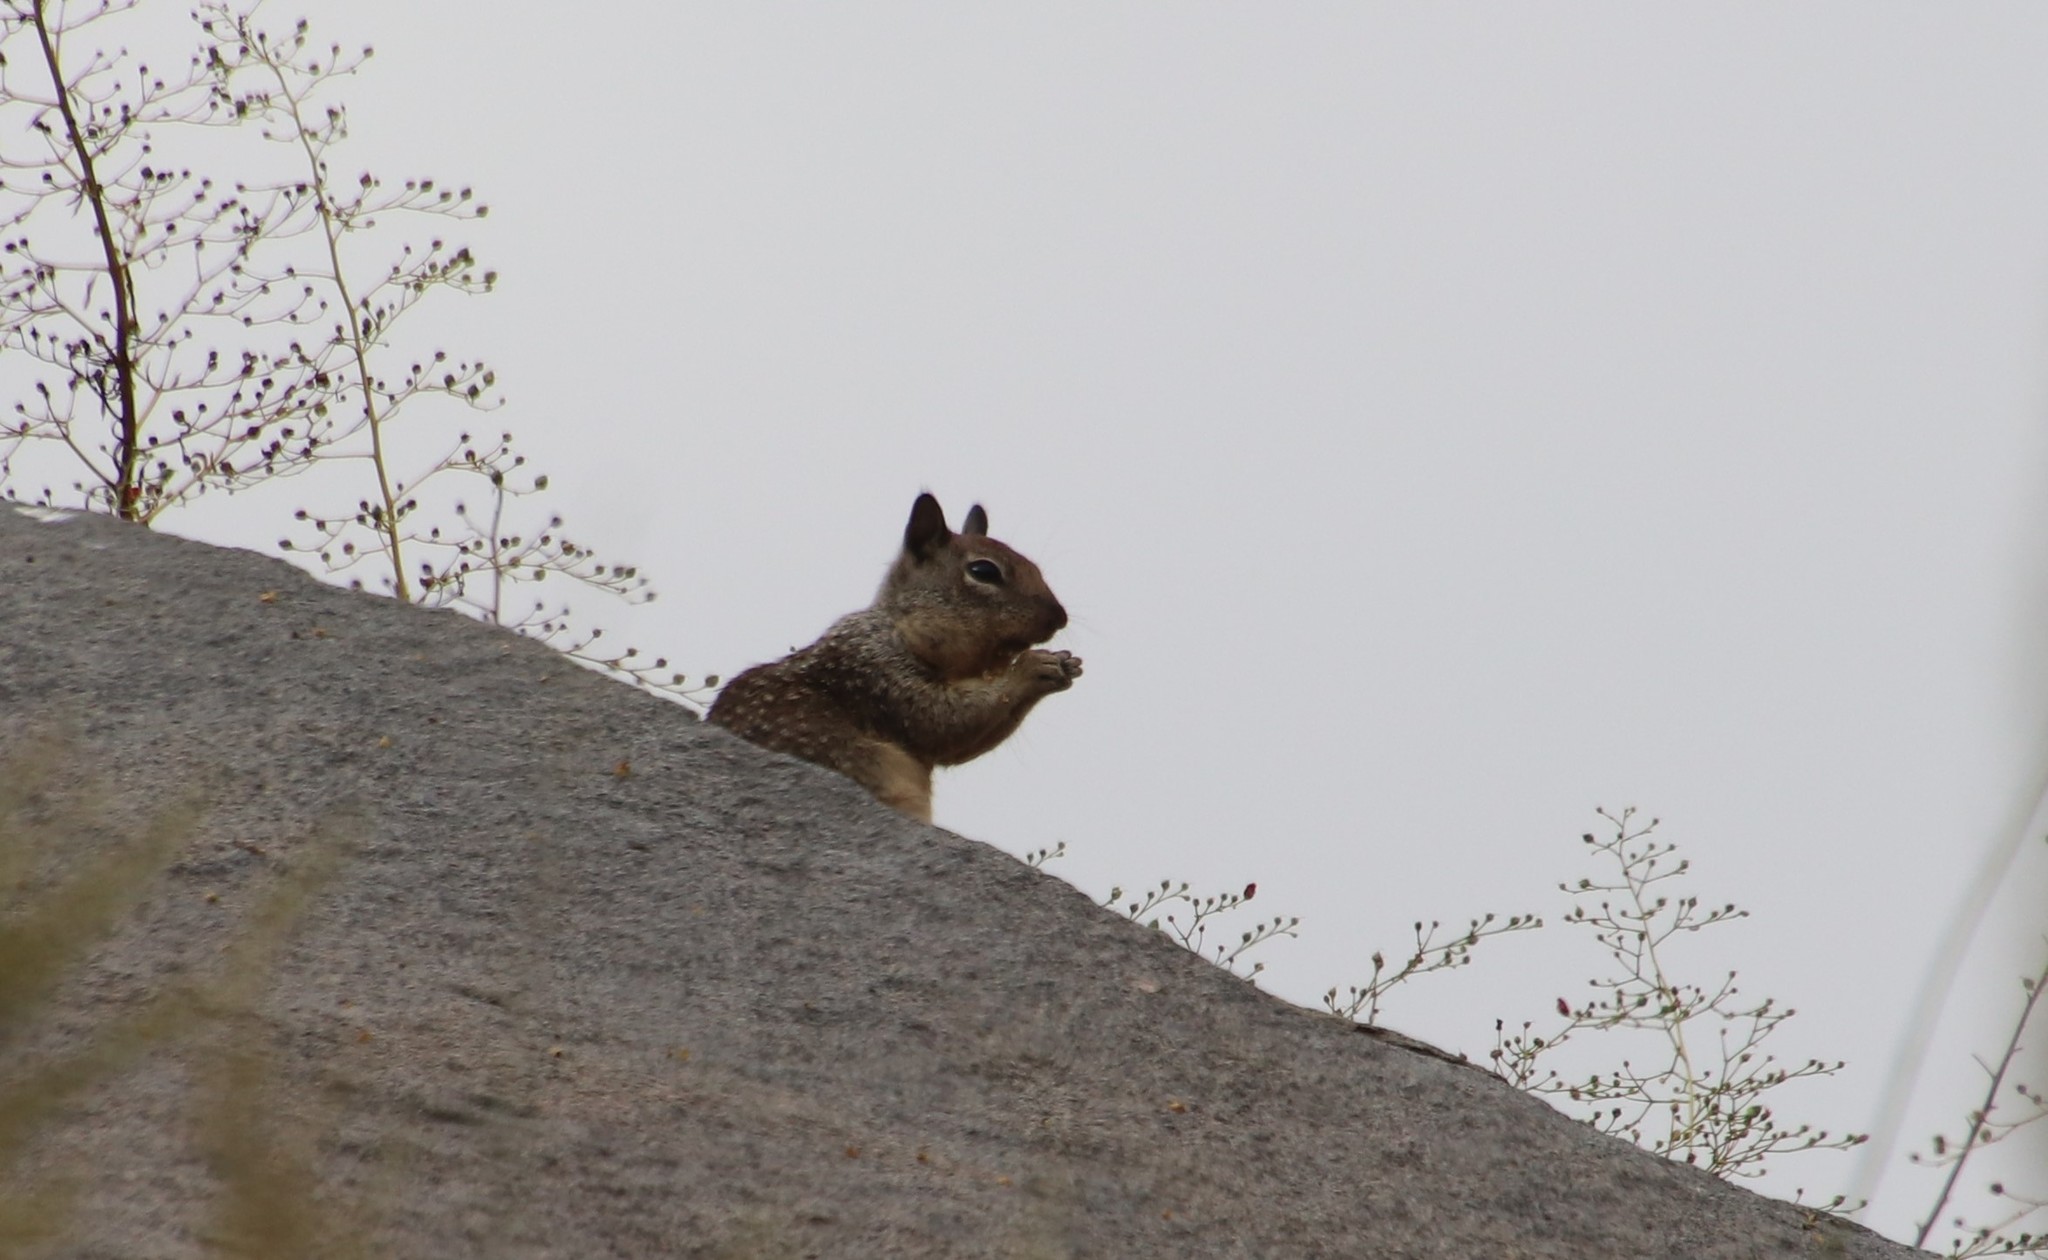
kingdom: Animalia
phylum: Chordata
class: Mammalia
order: Rodentia
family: Sciuridae
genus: Otospermophilus
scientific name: Otospermophilus beecheyi
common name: California ground squirrel
